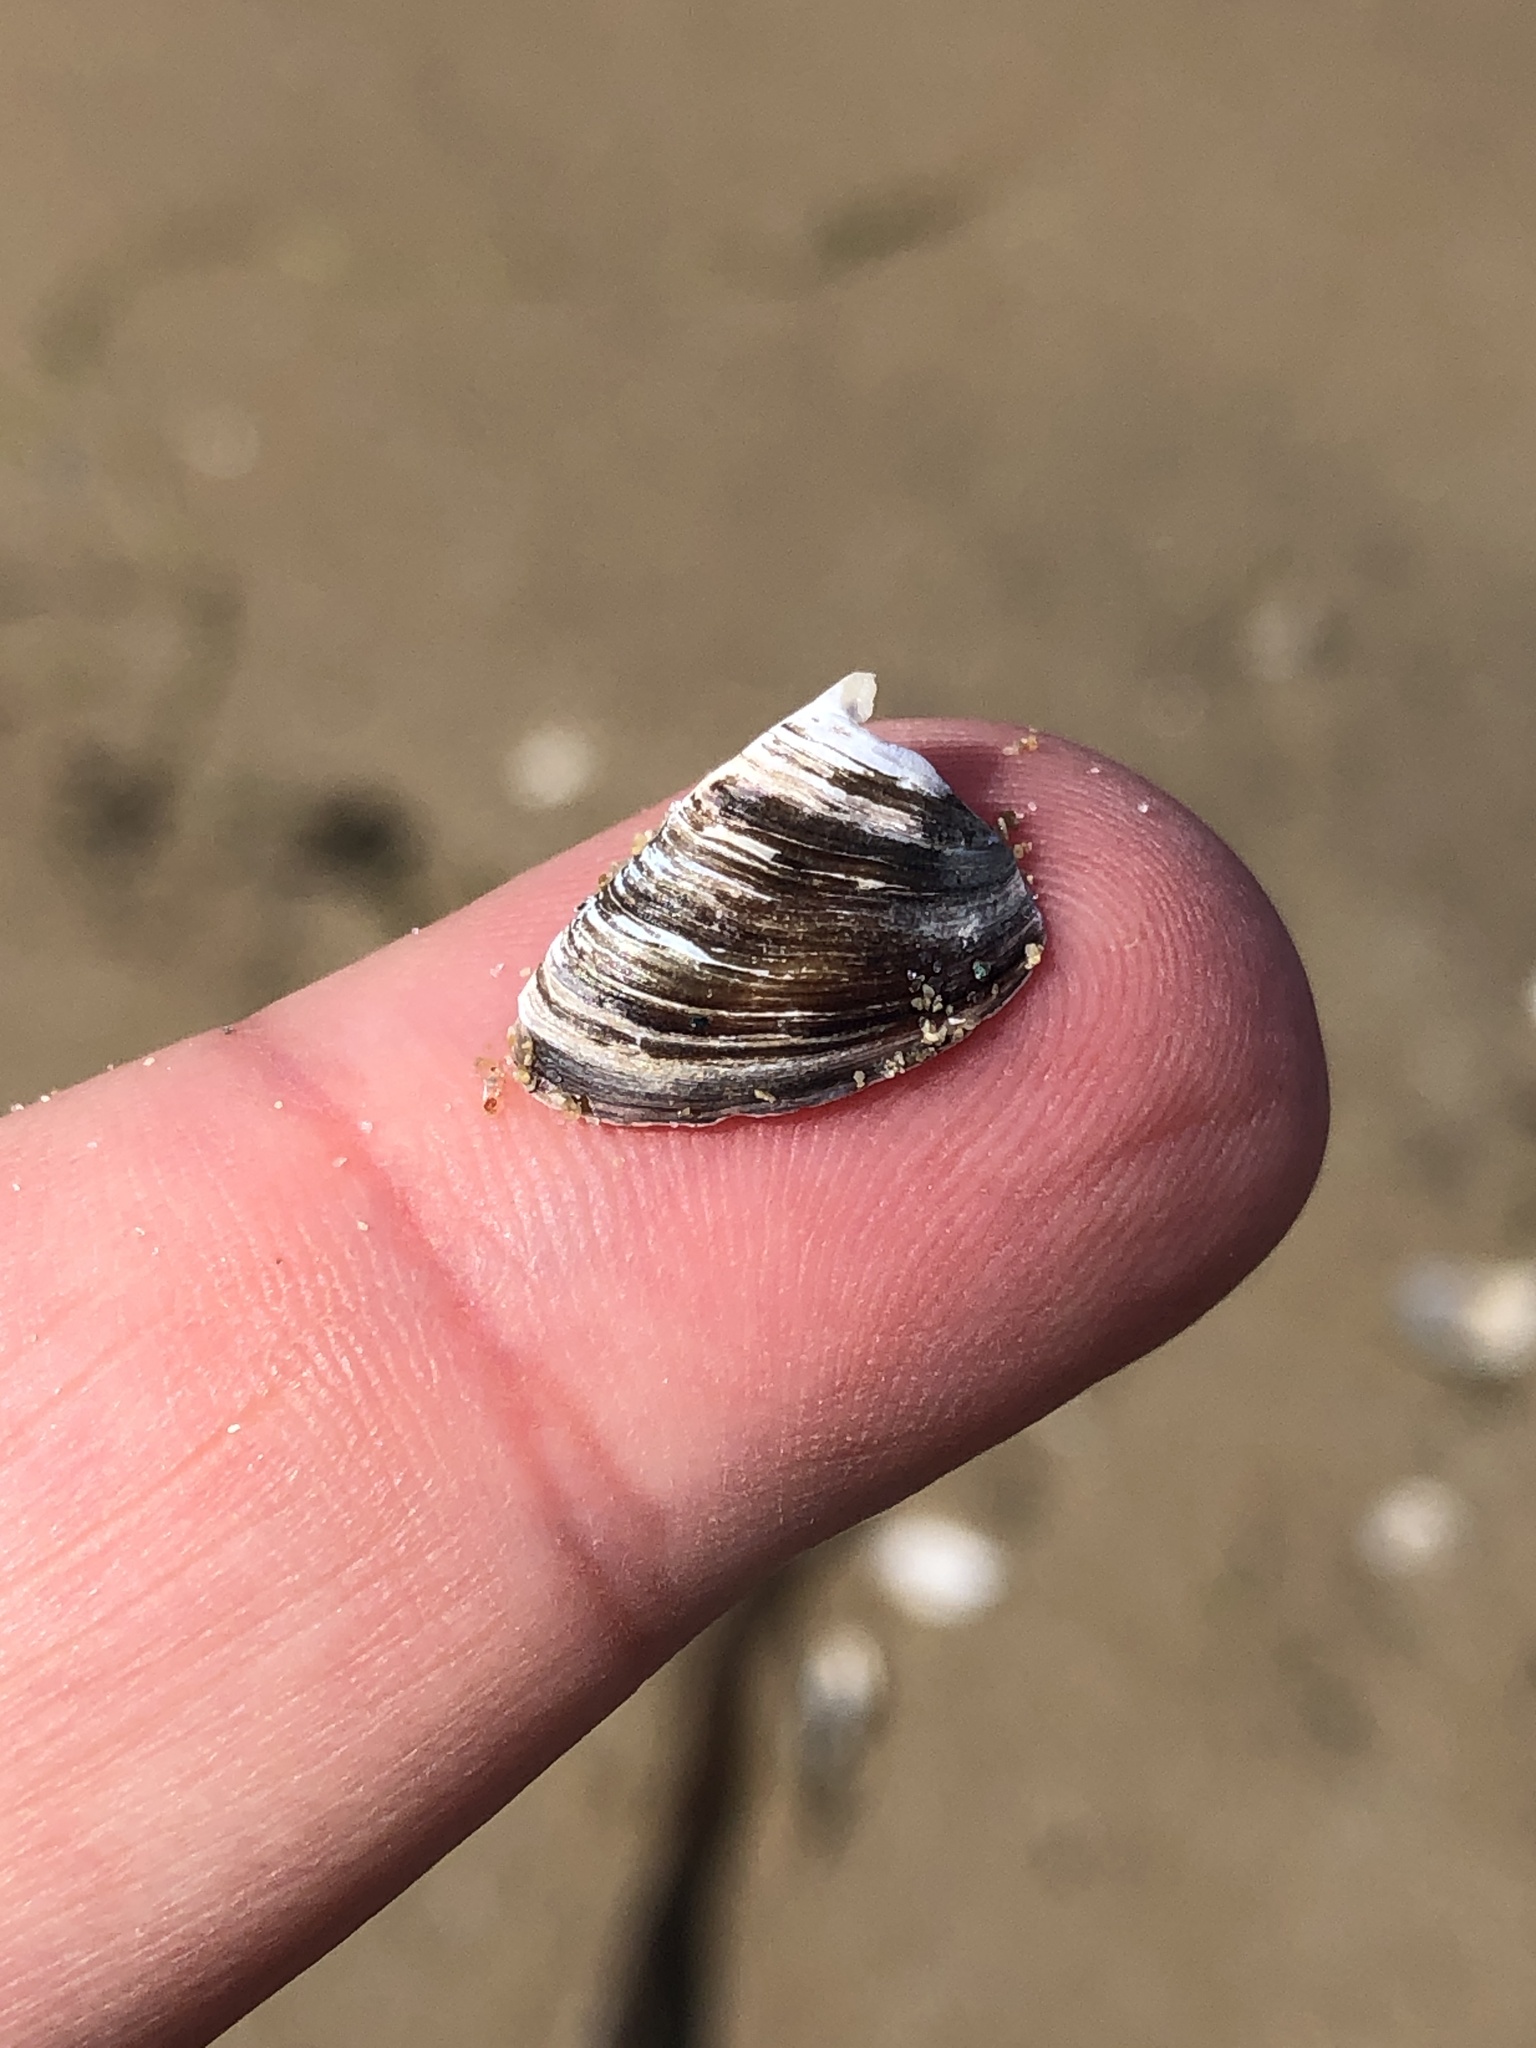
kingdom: Animalia
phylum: Mollusca
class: Bivalvia
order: Myida
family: Dreissenidae
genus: Dreissena
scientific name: Dreissena polymorpha
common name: Zebra mussel
